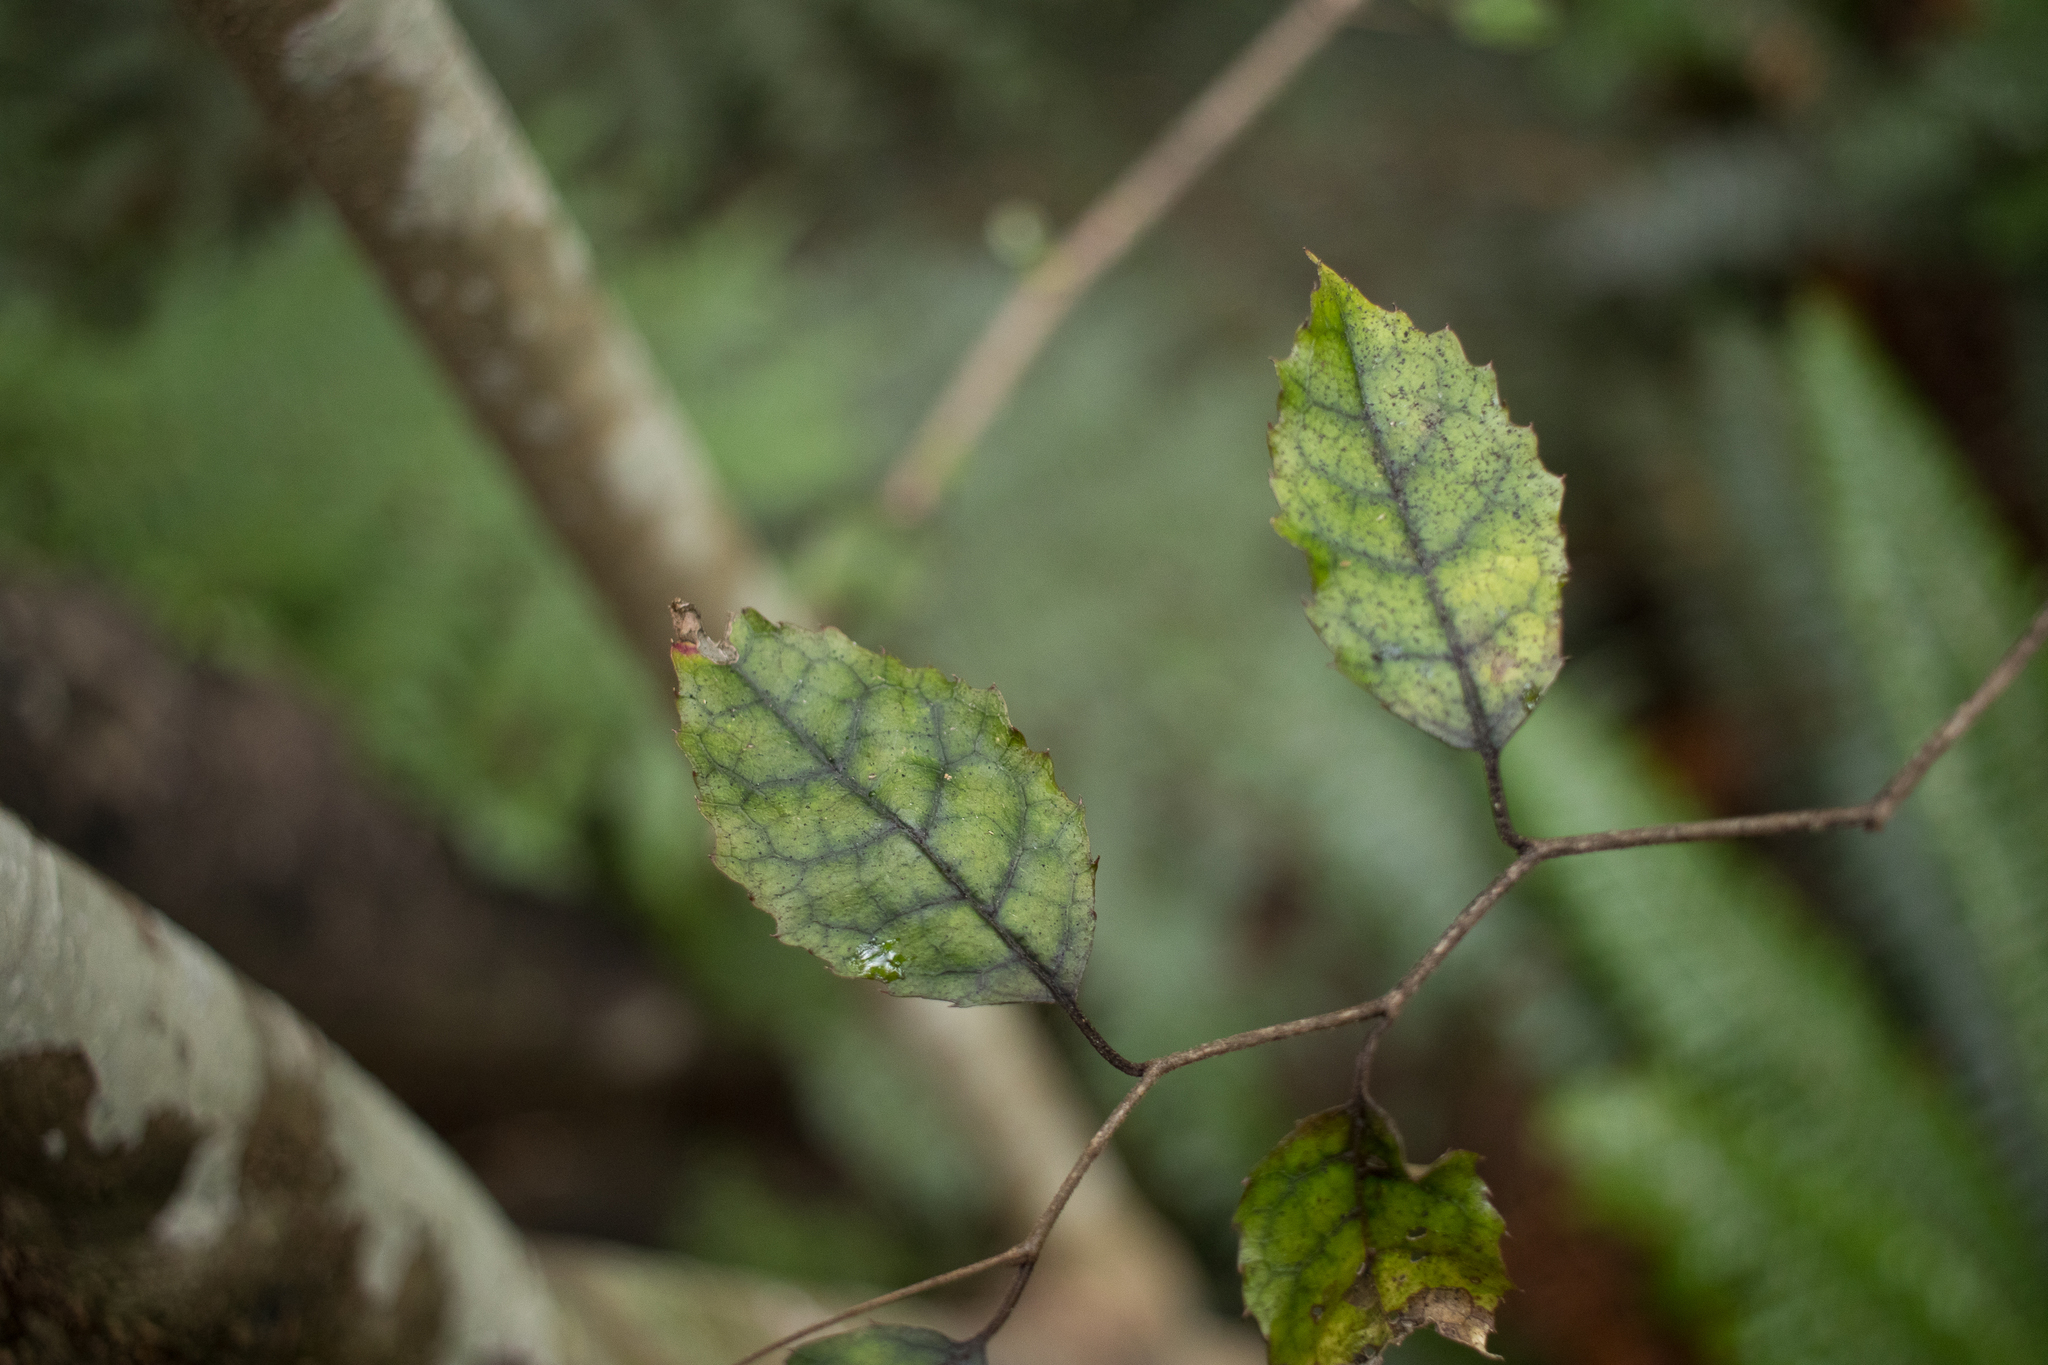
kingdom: Plantae
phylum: Tracheophyta
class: Magnoliopsida
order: Asterales
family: Rousseaceae
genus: Carpodetus
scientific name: Carpodetus serratus
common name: White mapau
